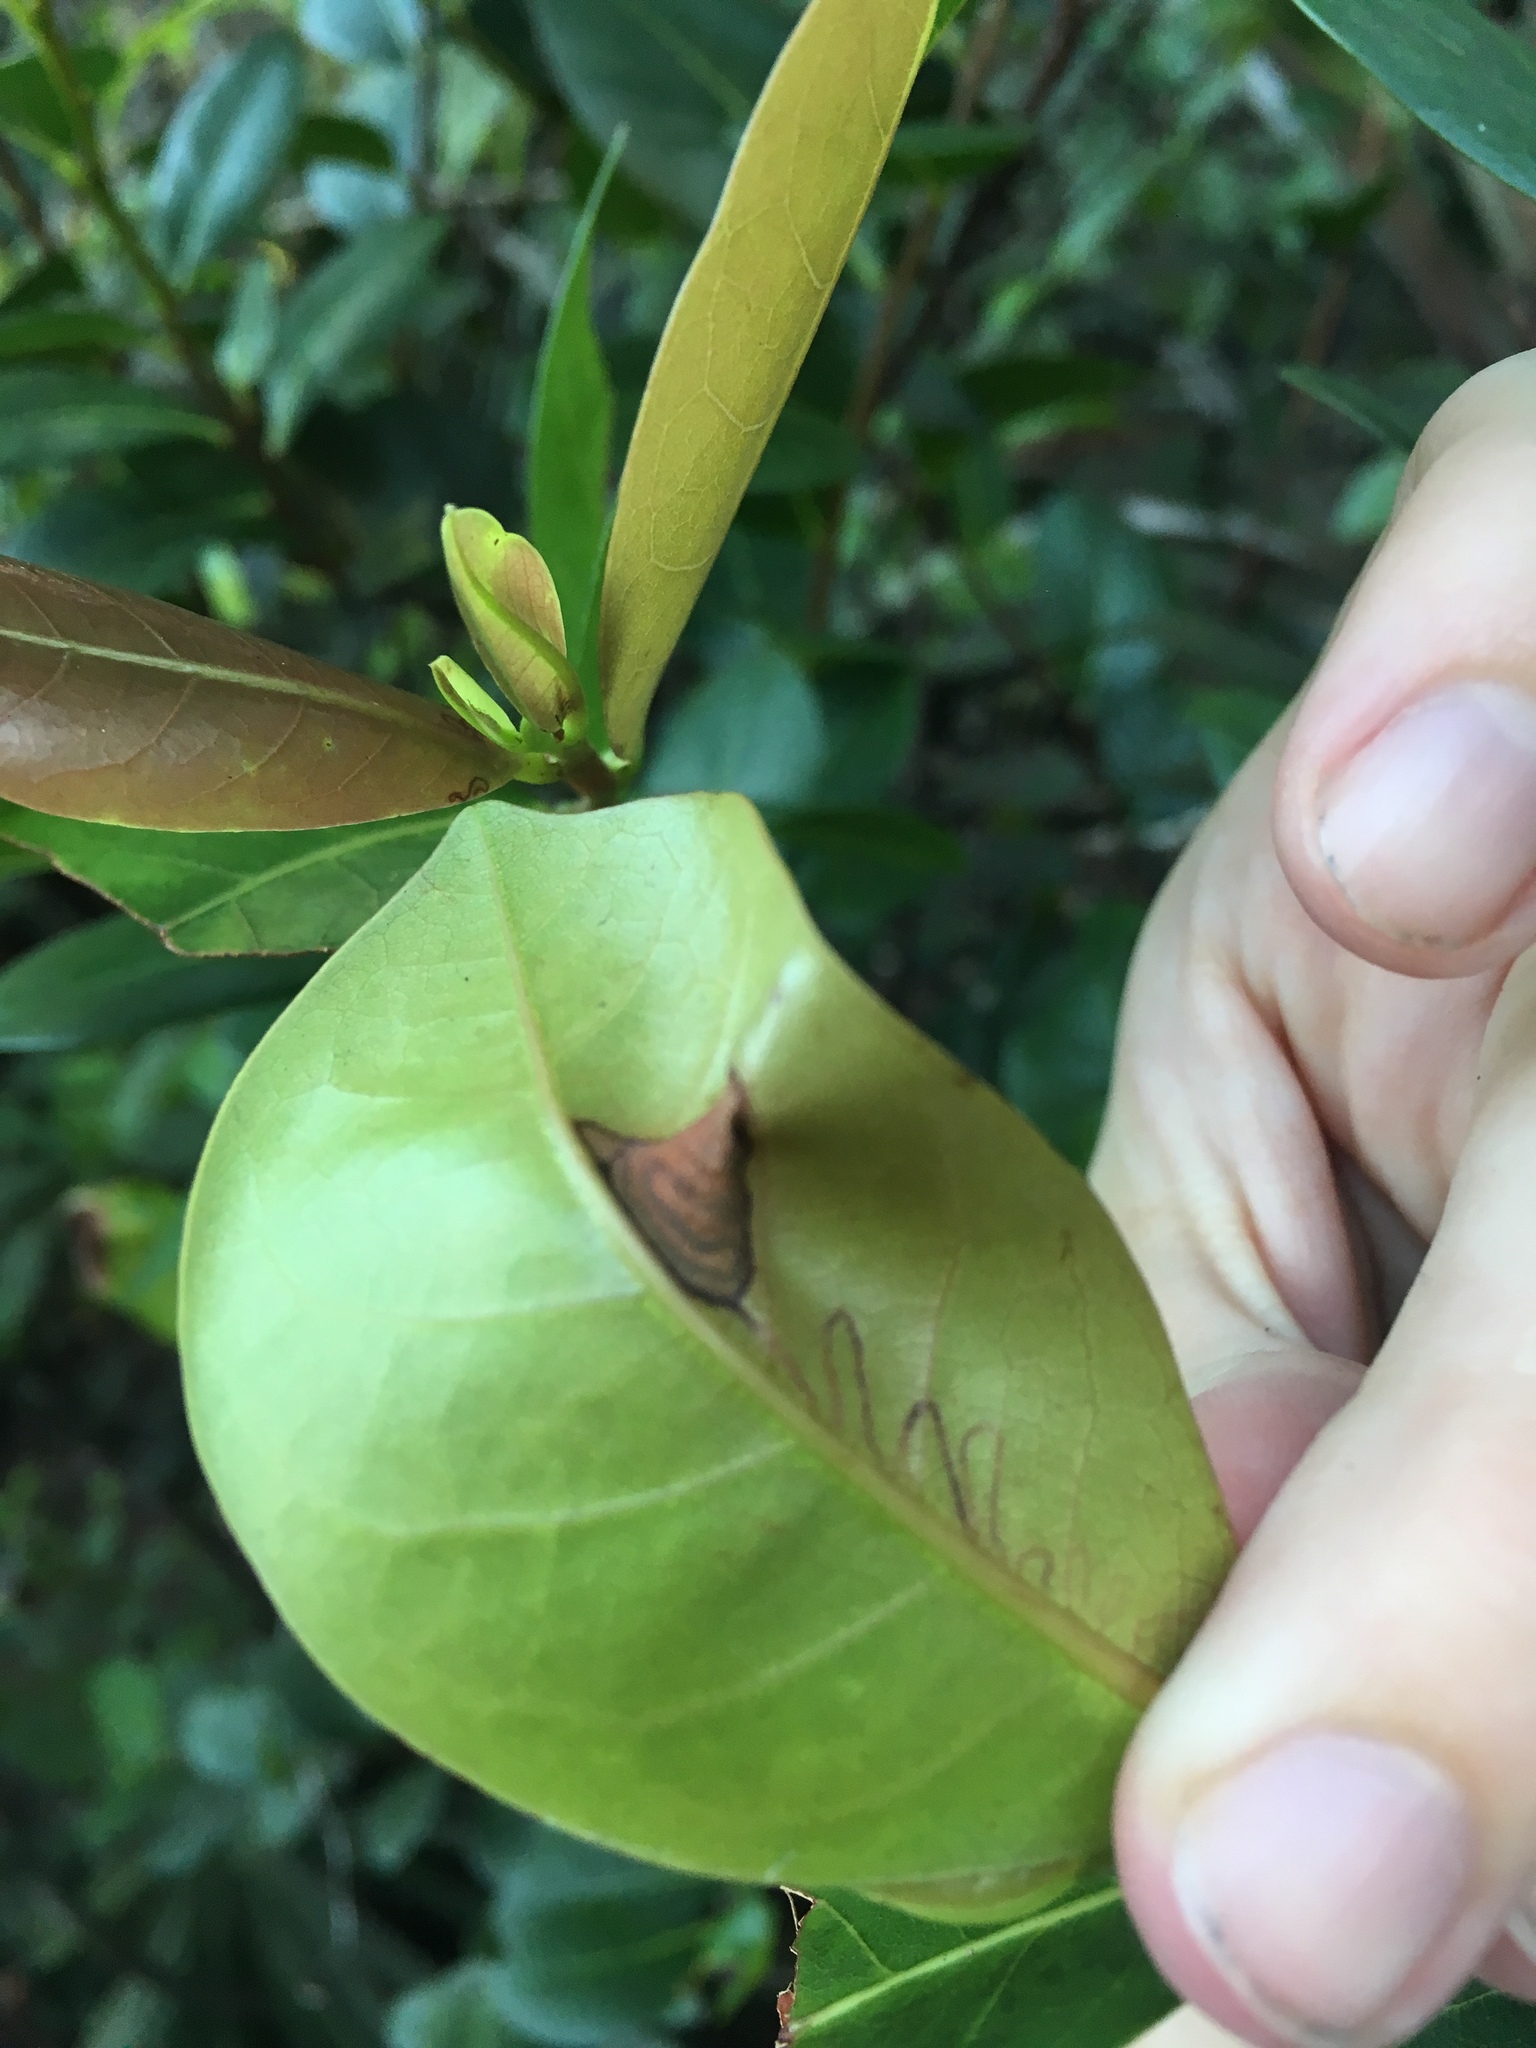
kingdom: Plantae
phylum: Tracheophyta
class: Magnoliopsida
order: Malpighiales
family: Chrysobalanaceae
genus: Chrysobalanus
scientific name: Chrysobalanus icaco
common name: Coco plum
